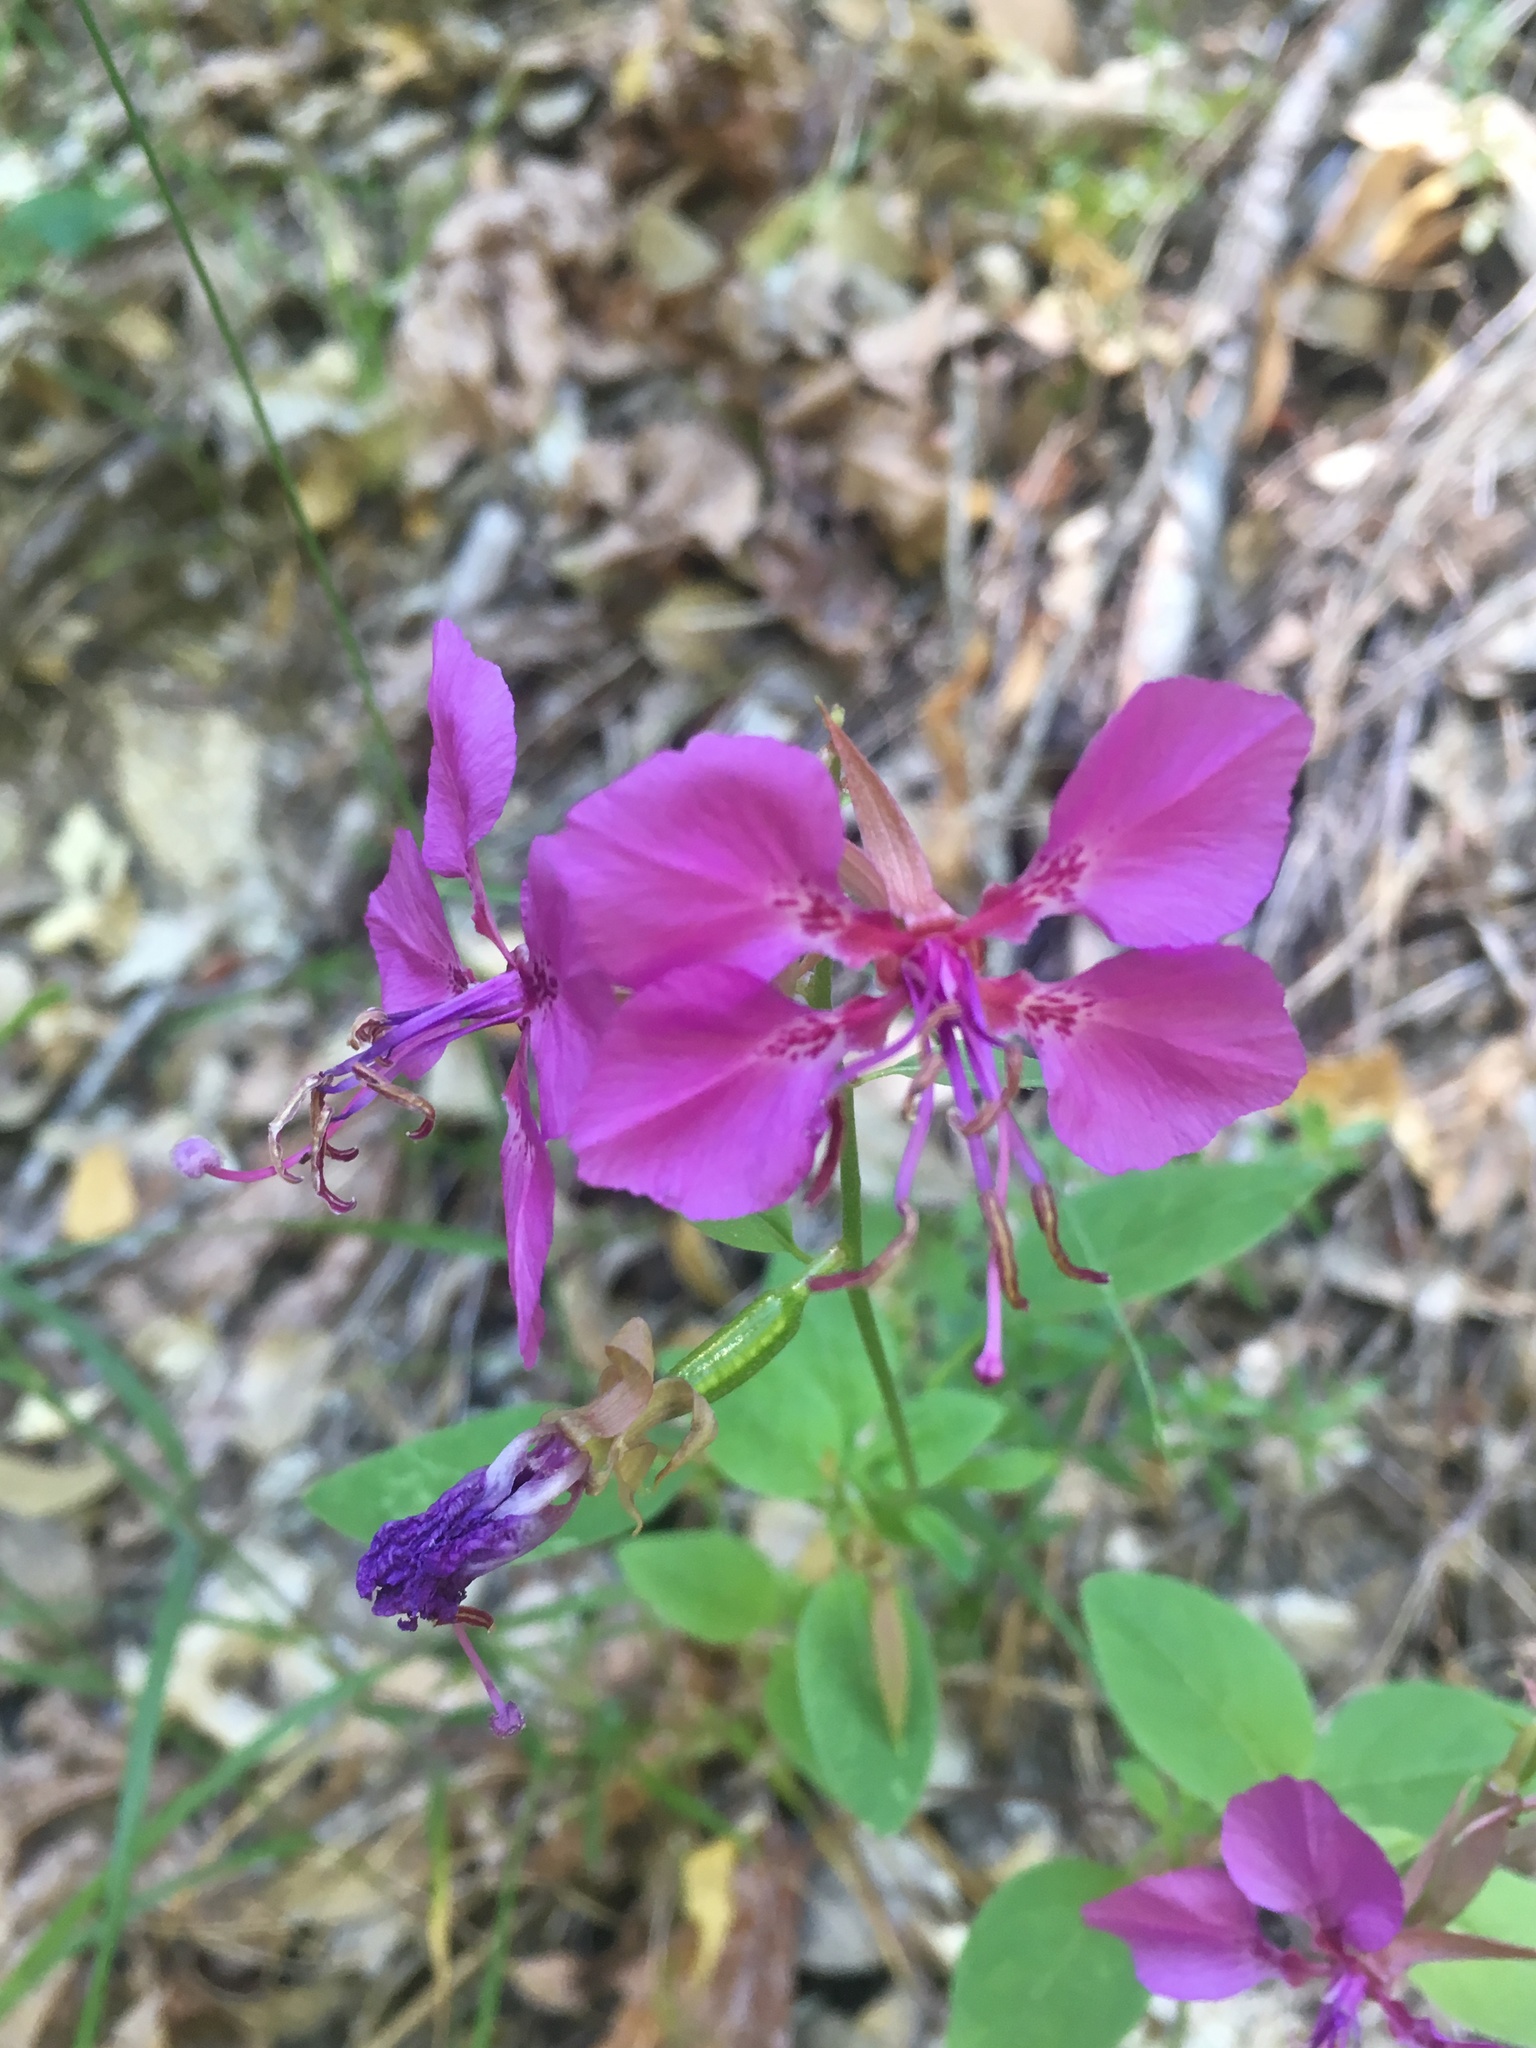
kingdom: Plantae
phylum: Tracheophyta
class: Magnoliopsida
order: Myrtales
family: Onagraceae
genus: Clarkia
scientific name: Clarkia mildrediae
